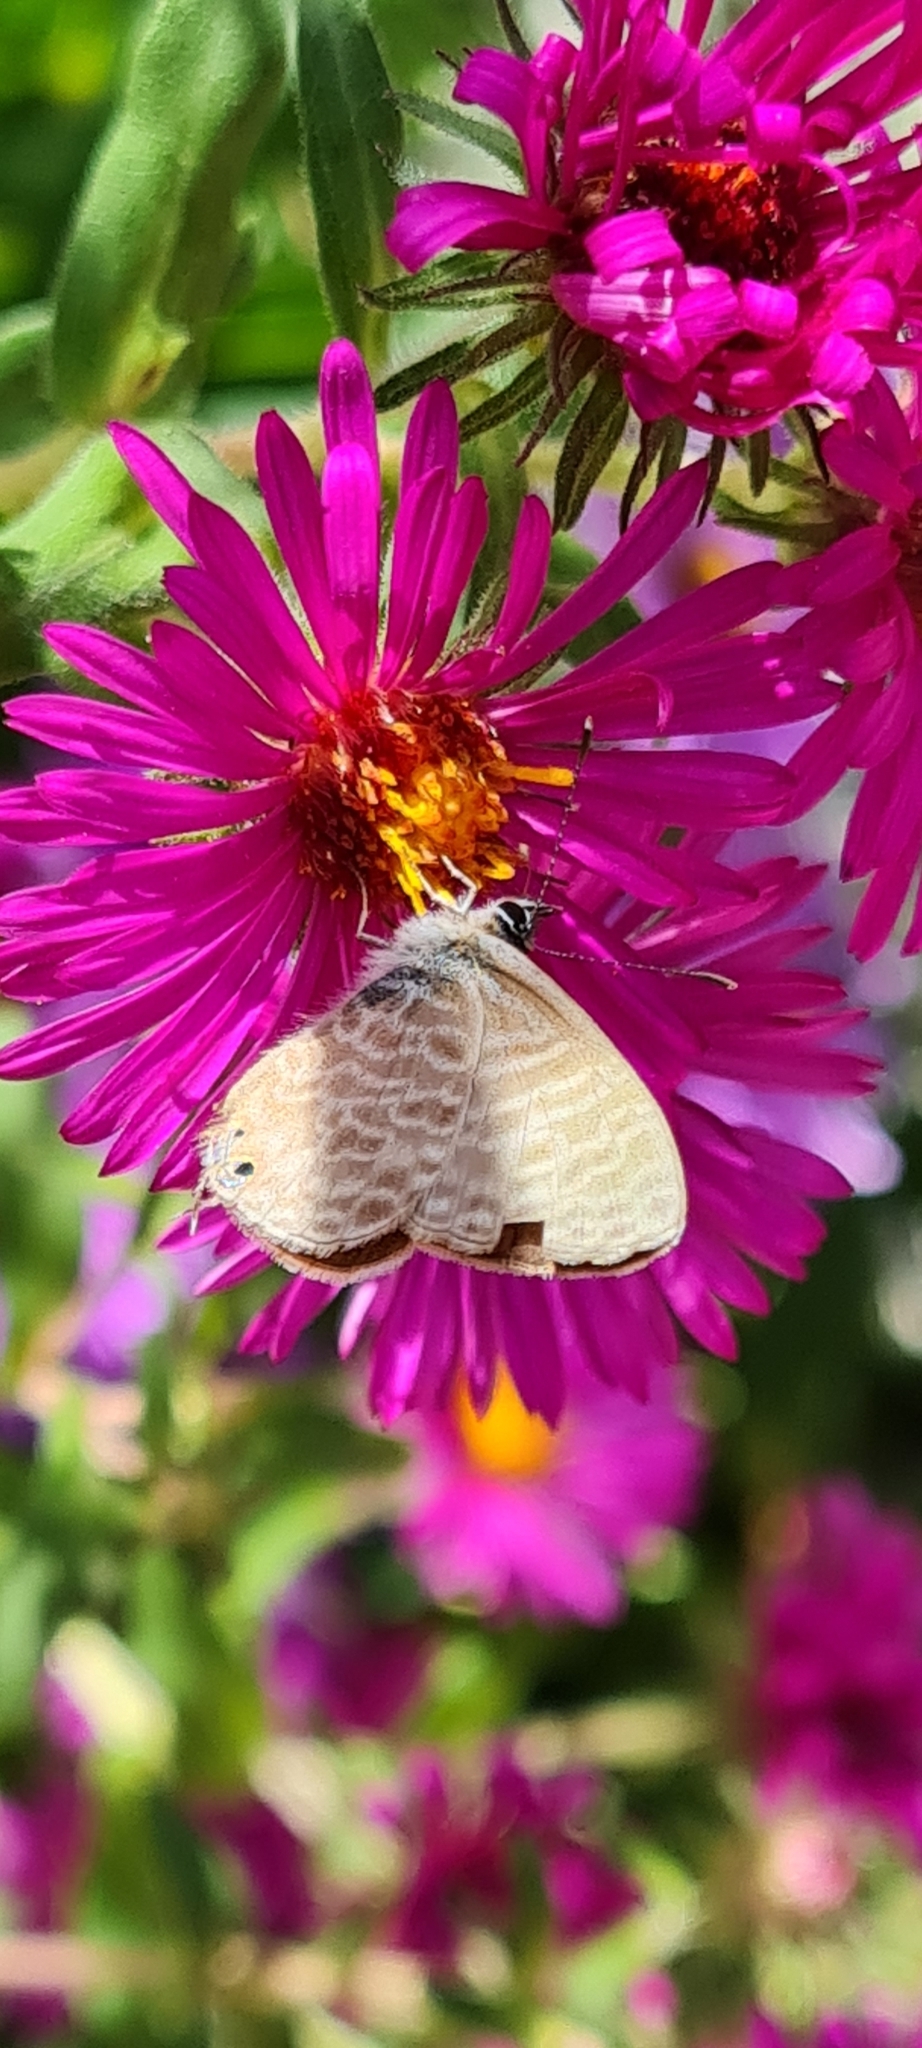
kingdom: Animalia
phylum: Arthropoda
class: Insecta
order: Lepidoptera
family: Lycaenidae
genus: Leptotes
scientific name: Leptotes pirithous
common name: Lang's short-tailed blue
